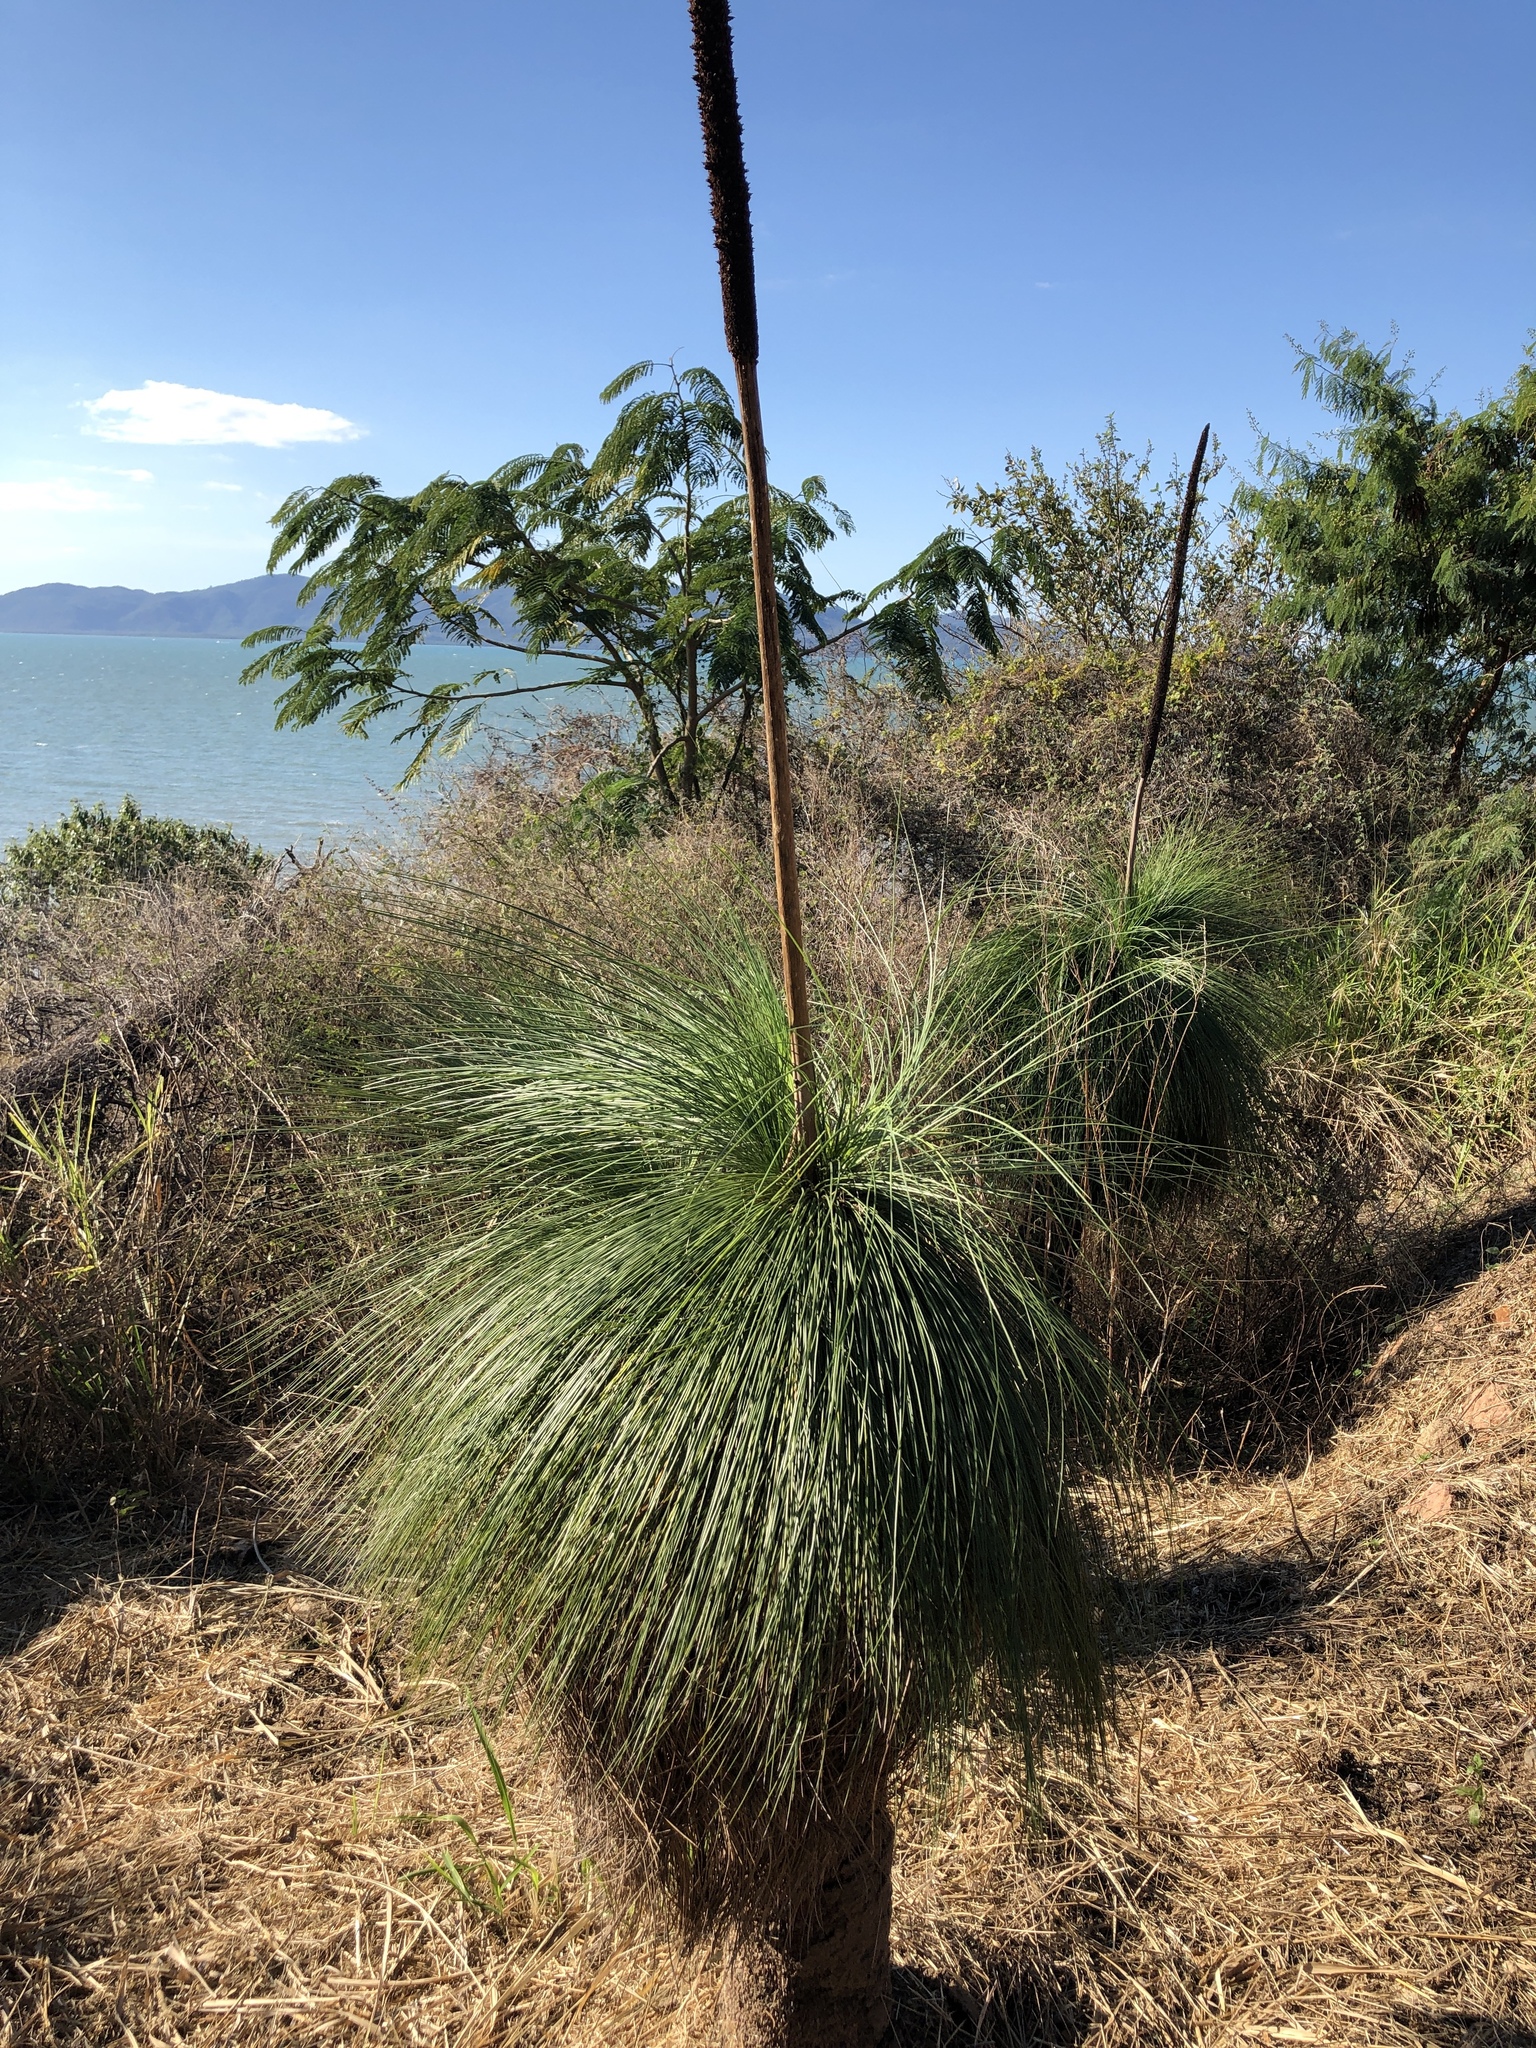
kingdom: Plantae
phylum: Tracheophyta
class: Liliopsida
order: Asparagales
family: Asphodelaceae
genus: Xanthorrhoea
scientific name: Xanthorrhoea johnsonii
